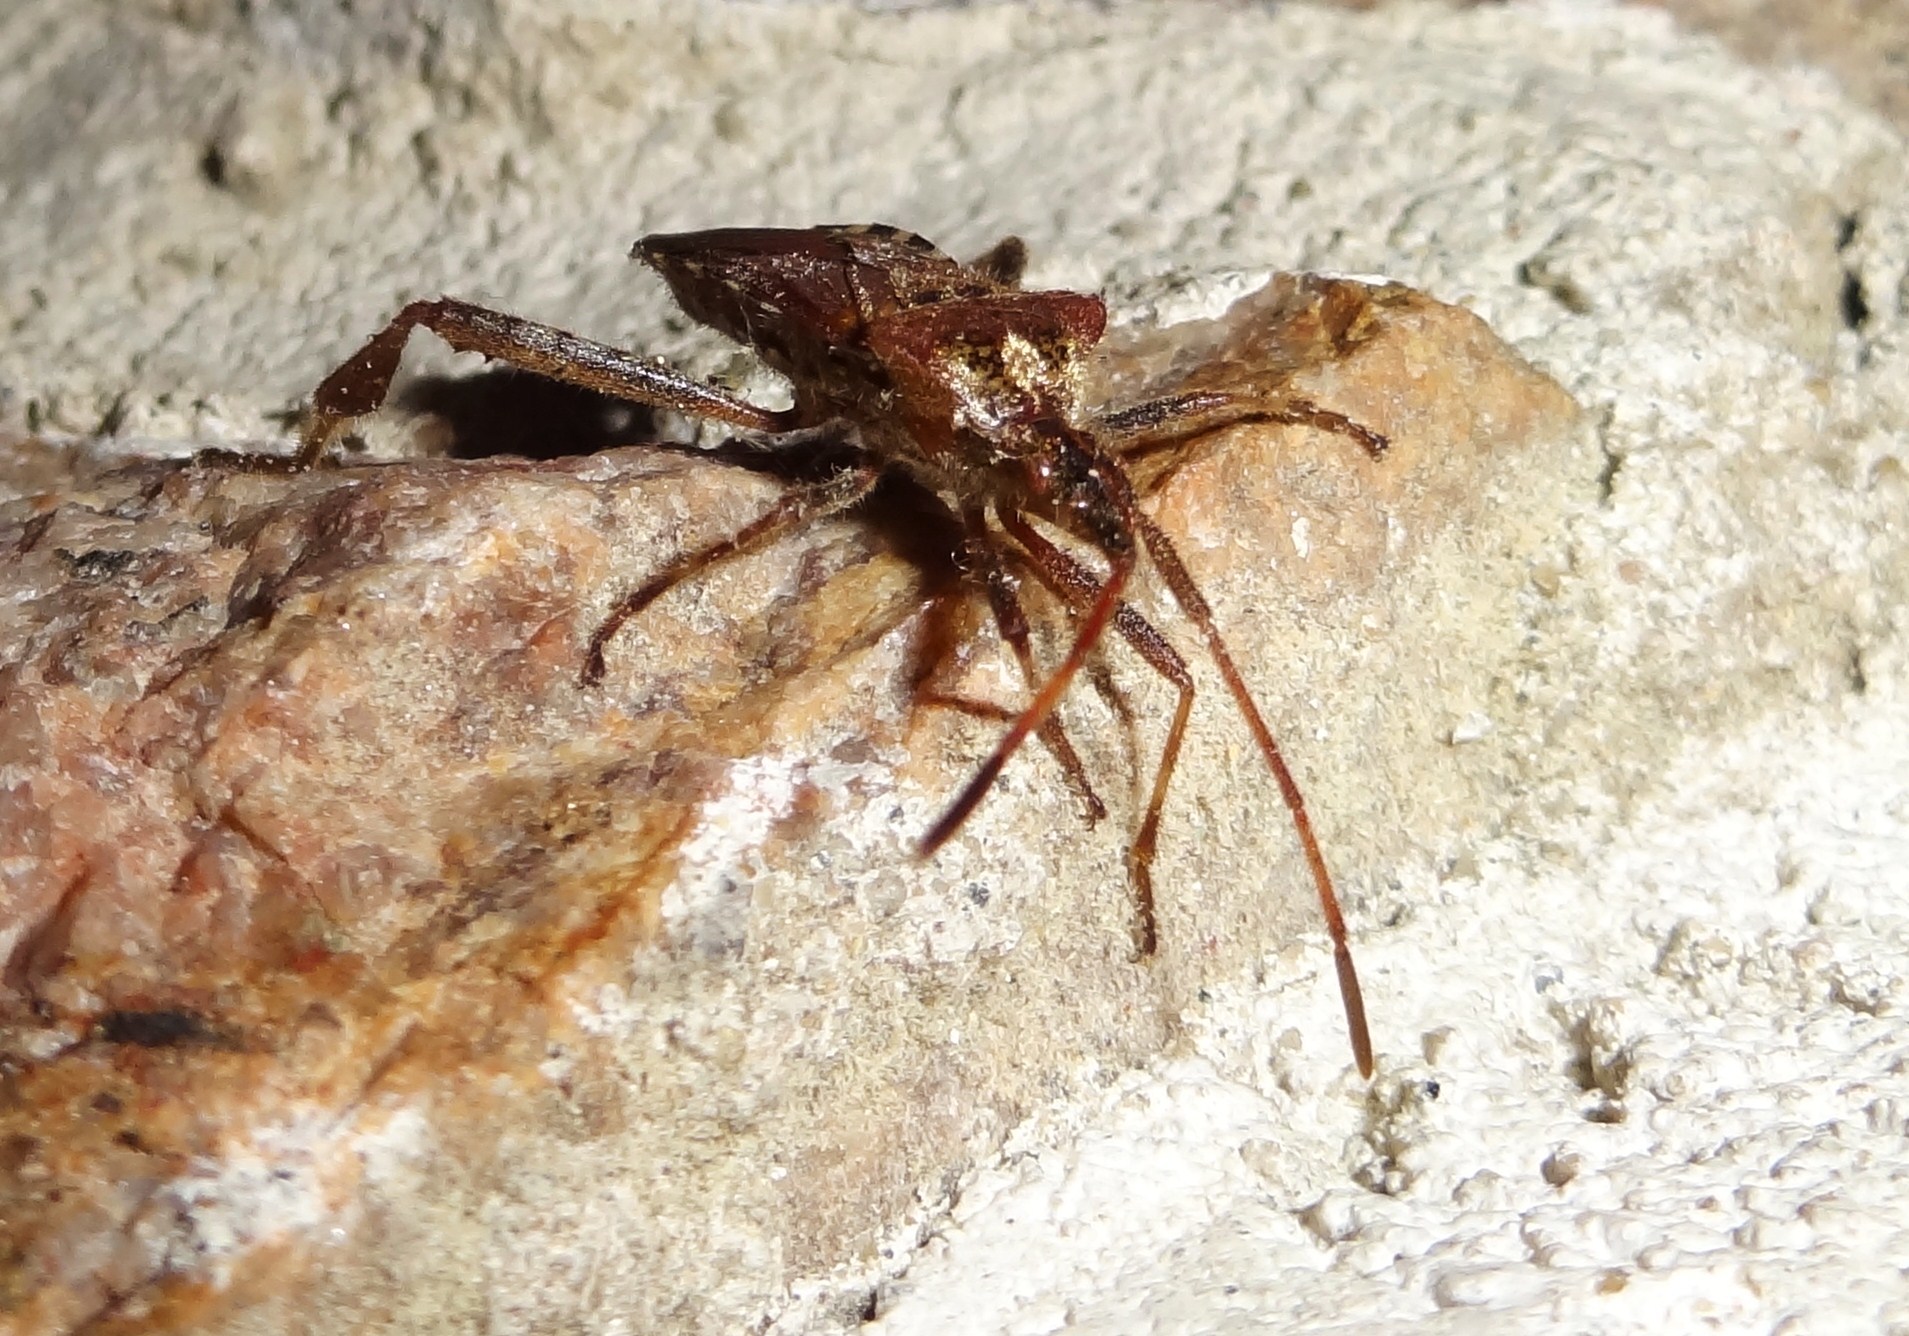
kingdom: Animalia
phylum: Arthropoda
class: Insecta
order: Hemiptera
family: Coreidae
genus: Leptoglossus
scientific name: Leptoglossus occidentalis
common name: Western conifer-seed bug
